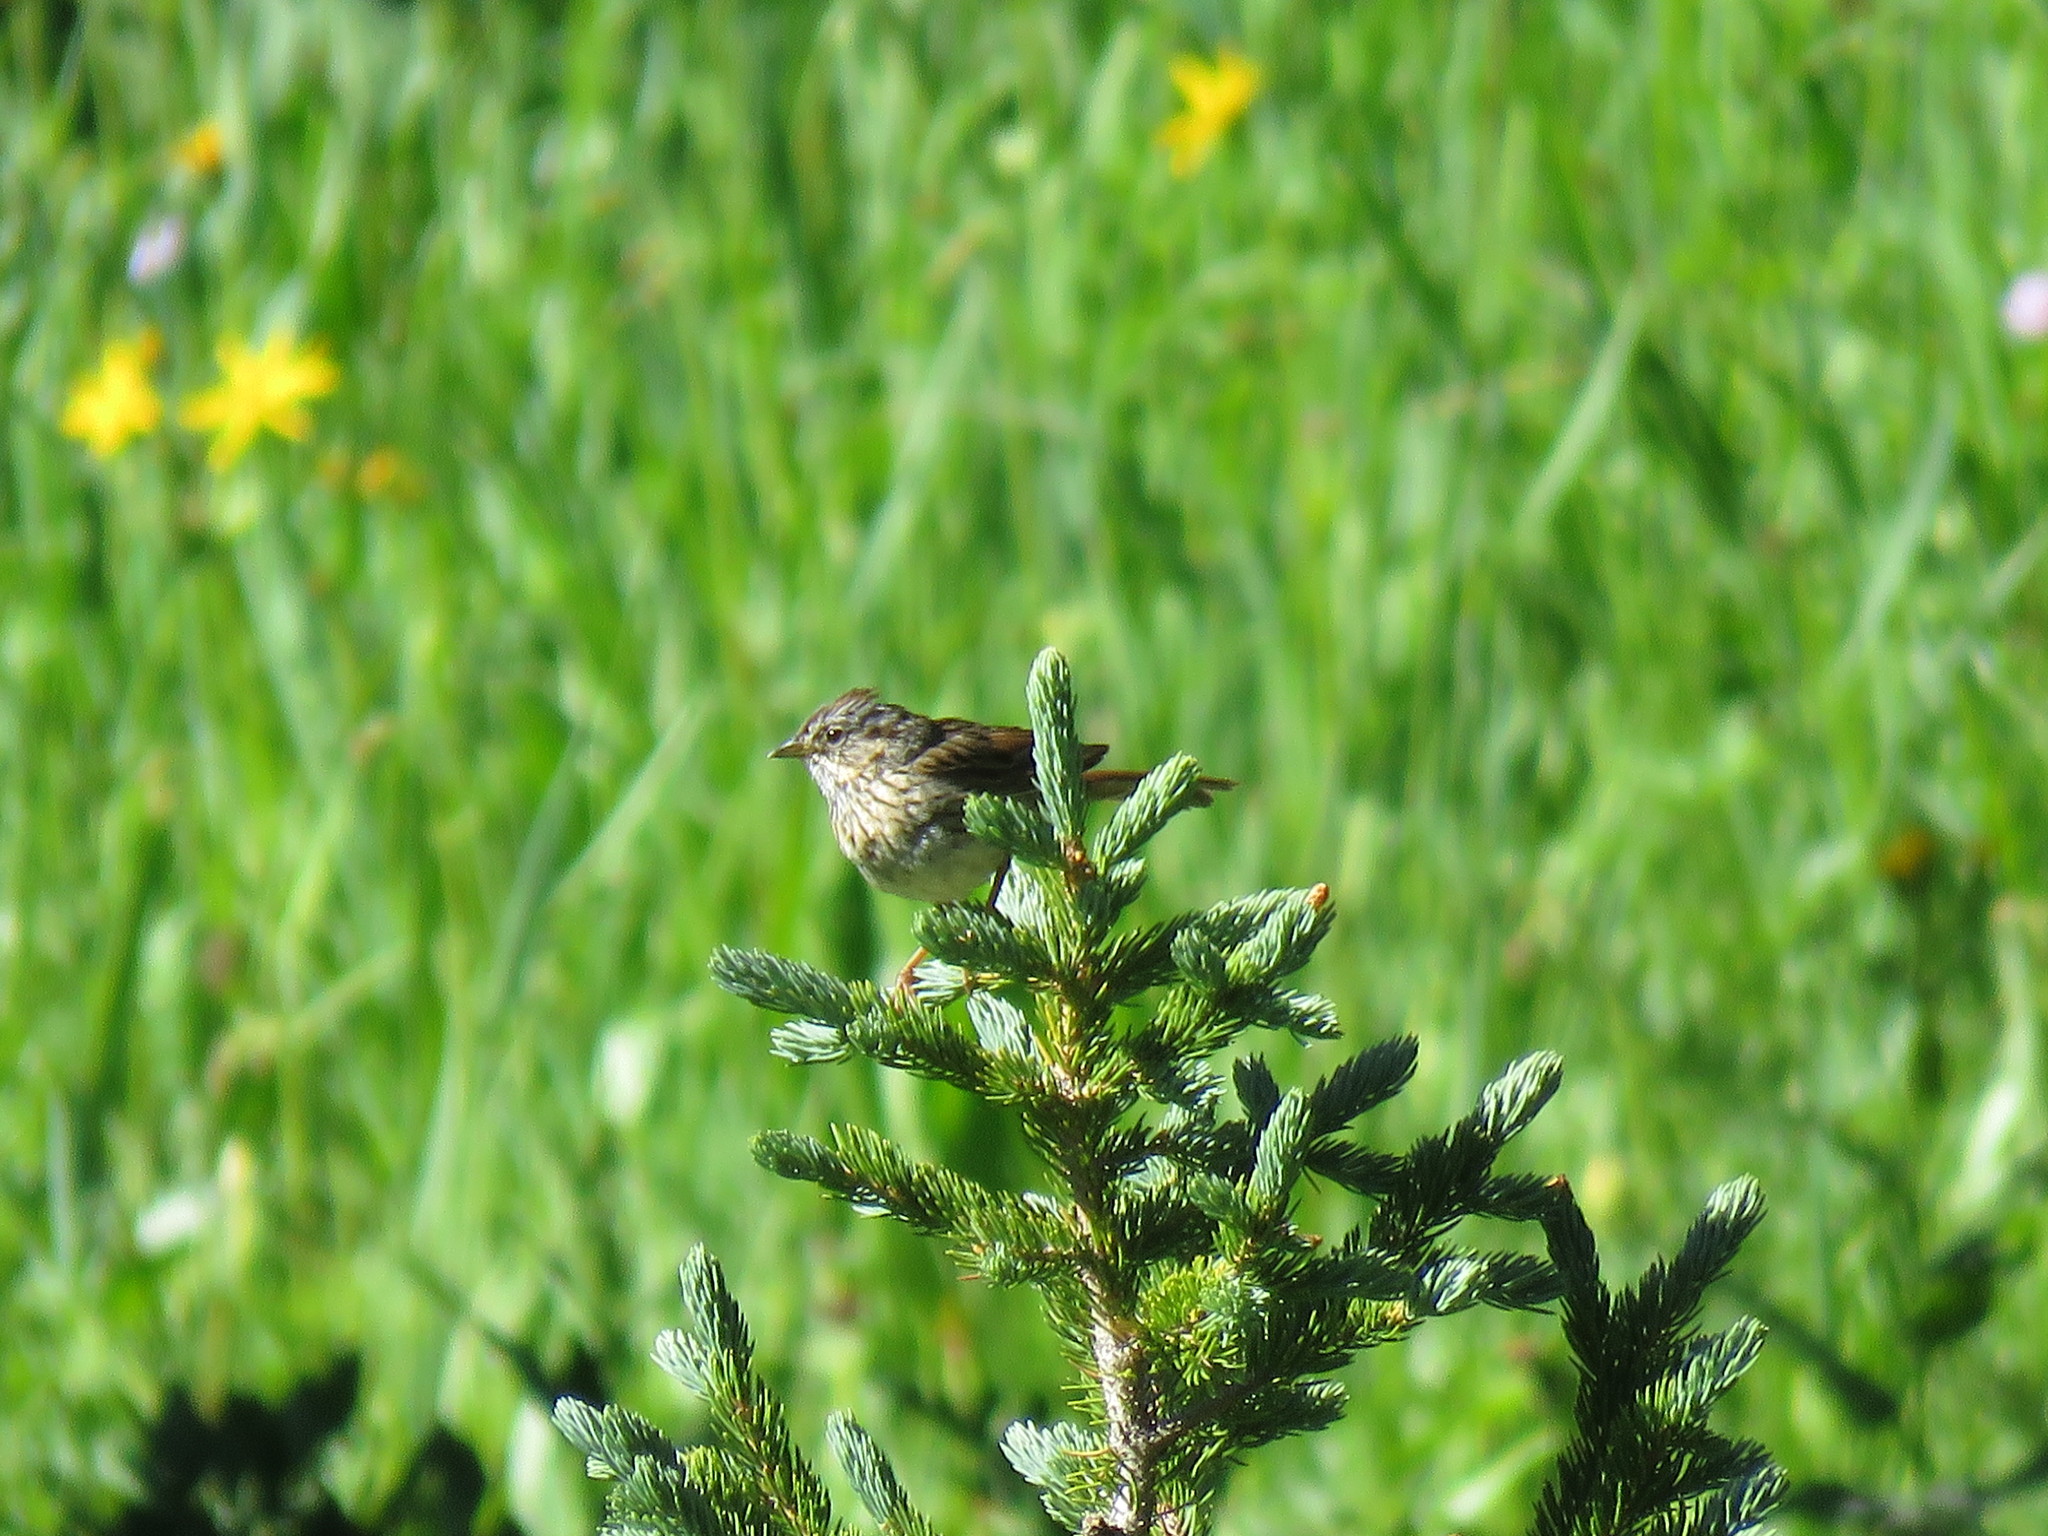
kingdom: Animalia
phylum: Chordata
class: Aves
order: Passeriformes
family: Passerellidae
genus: Melospiza
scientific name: Melospiza lincolnii
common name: Lincoln's sparrow
